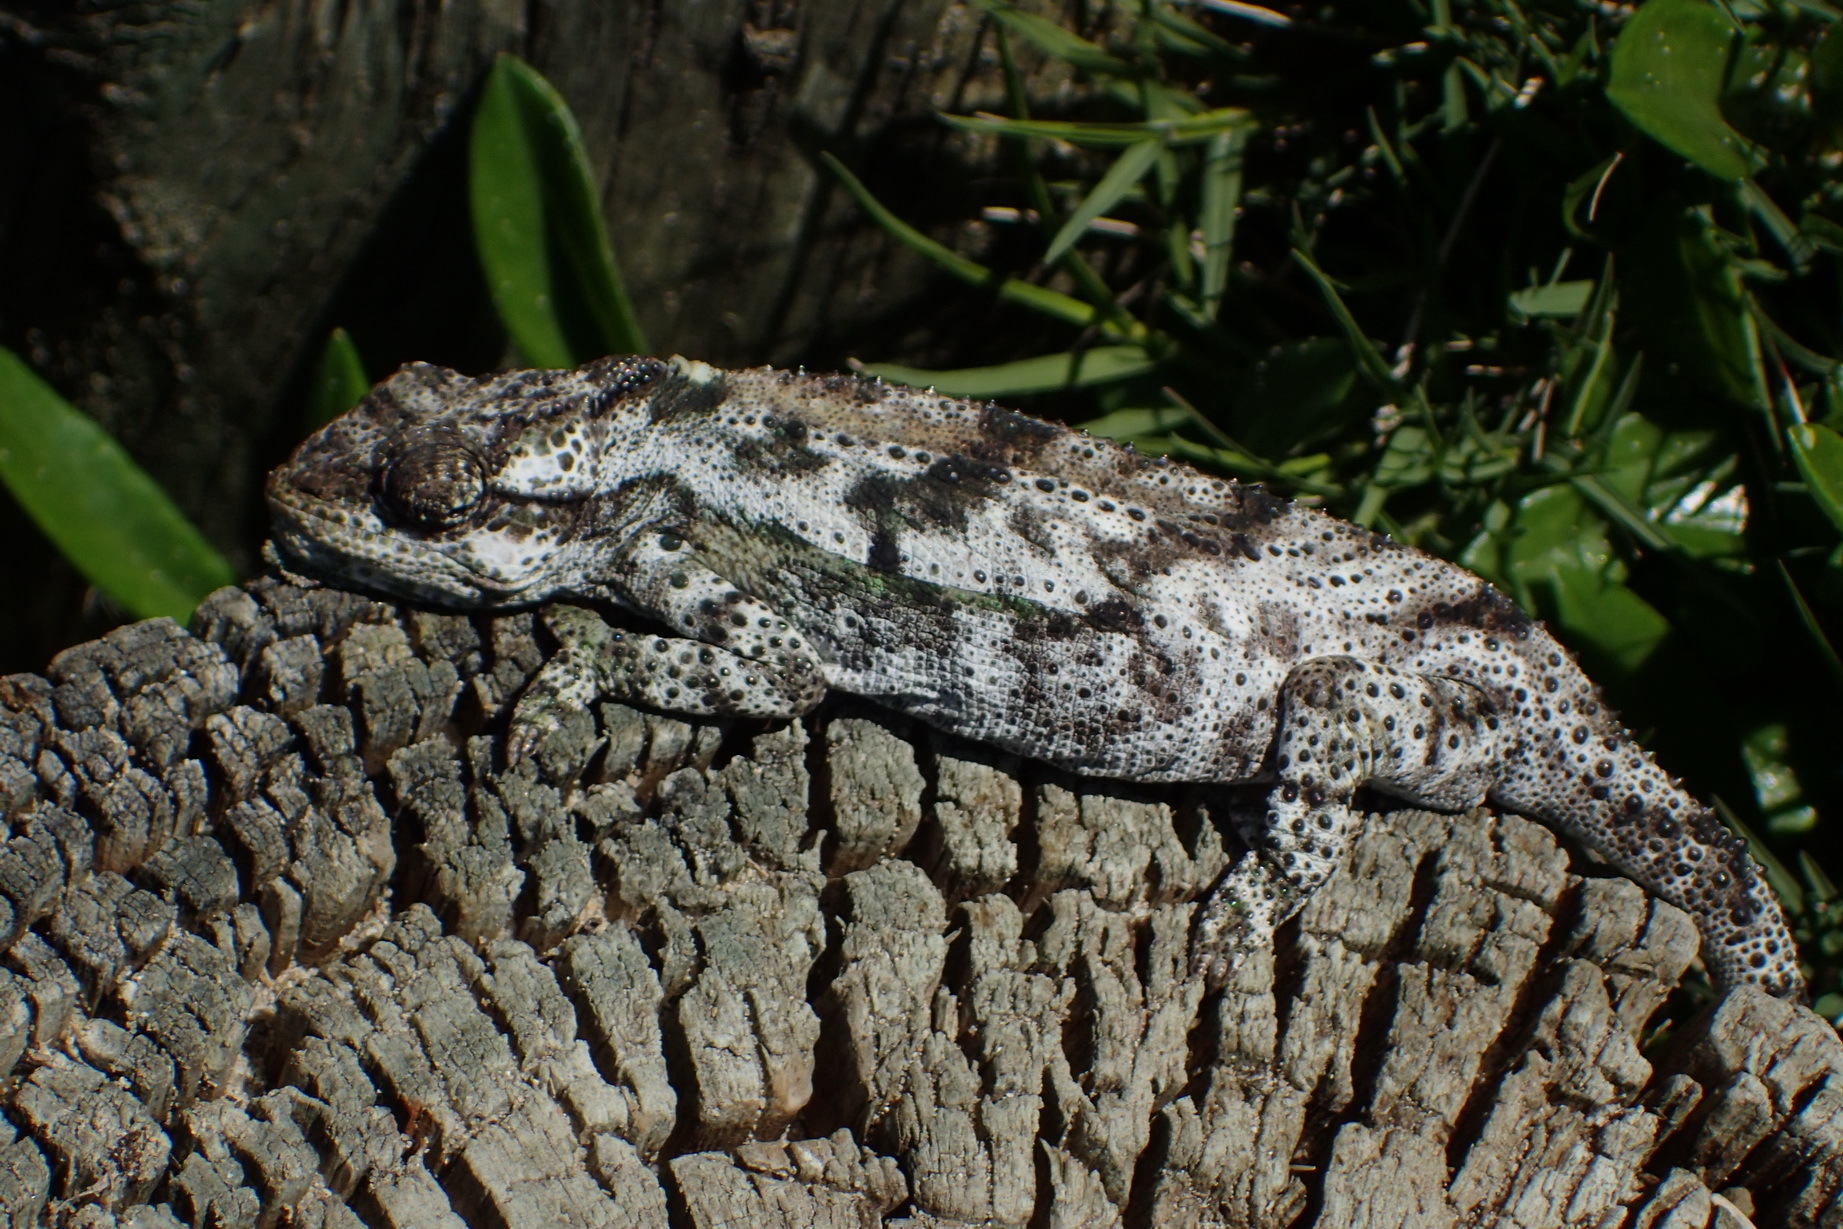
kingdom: Animalia
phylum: Chordata
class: Squamata
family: Chamaeleonidae
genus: Bradypodion
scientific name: Bradypodion damaranum
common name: Knysna dwarf chameleon
